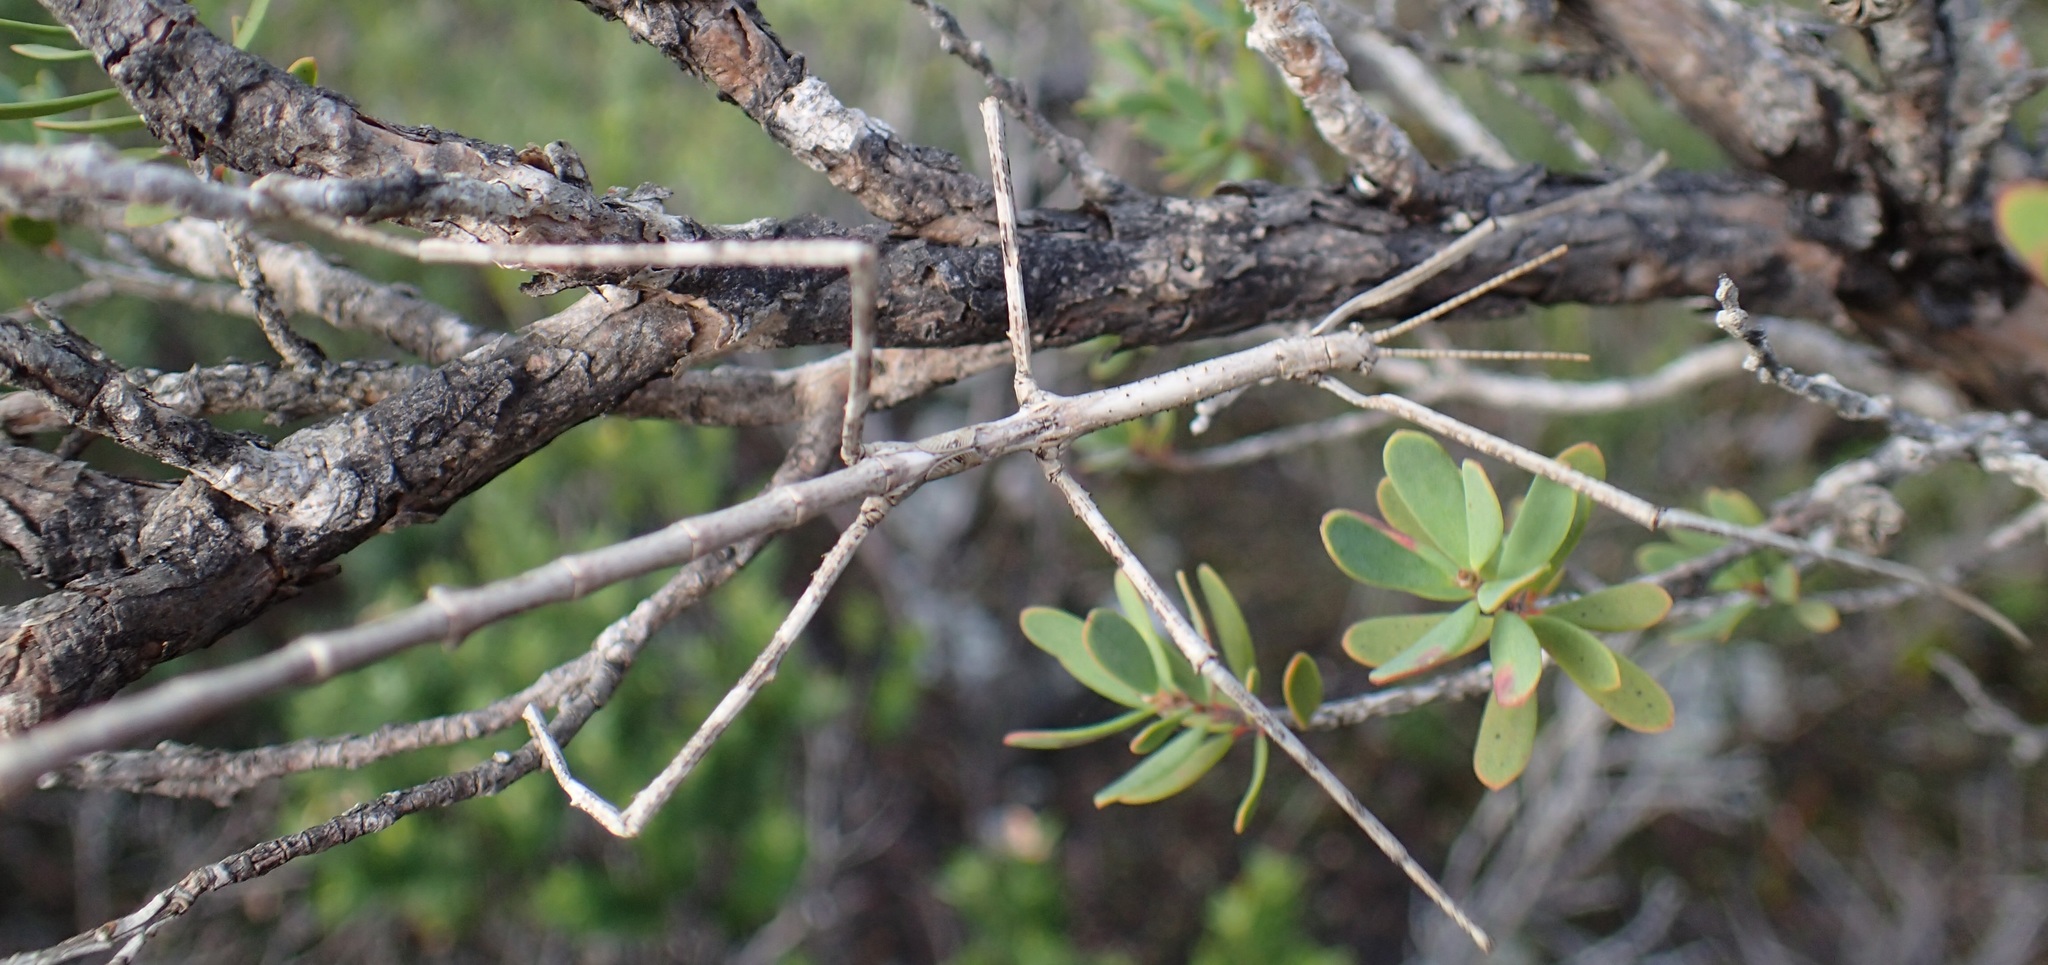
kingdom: Animalia
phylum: Arthropoda
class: Insecta
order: Phasmida
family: Phasmatidae
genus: Ctenomorpha
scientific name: Ctenomorpha marginipennis
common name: Margined-winged stick-insect
